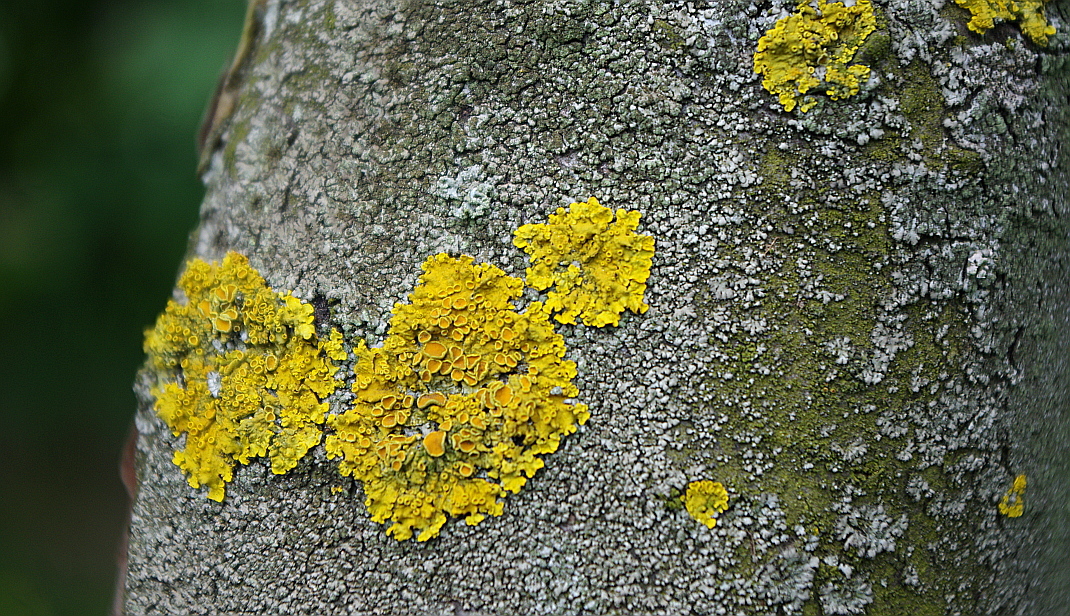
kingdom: Fungi
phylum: Ascomycota
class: Lecanoromycetes
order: Teloschistales
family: Teloschistaceae
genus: Xanthoria
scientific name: Xanthoria parietina
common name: Common orange lichen
